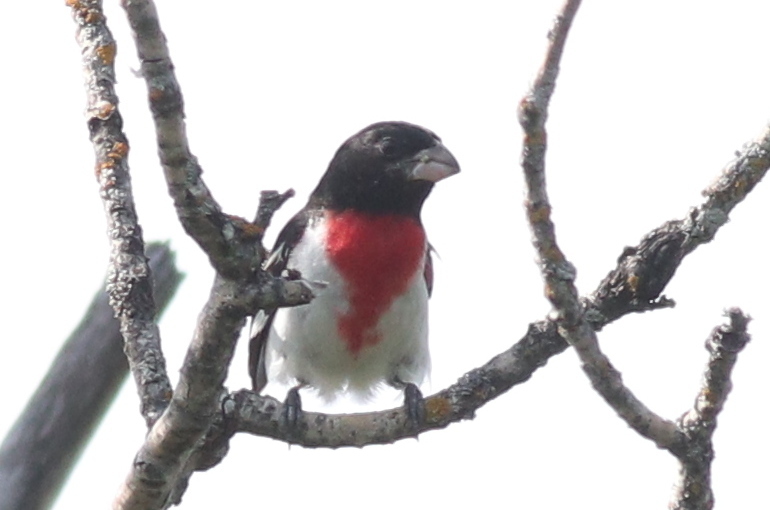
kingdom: Animalia
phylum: Chordata
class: Aves
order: Passeriformes
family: Cardinalidae
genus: Pheucticus
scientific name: Pheucticus ludovicianus
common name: Rose-breasted grosbeak
